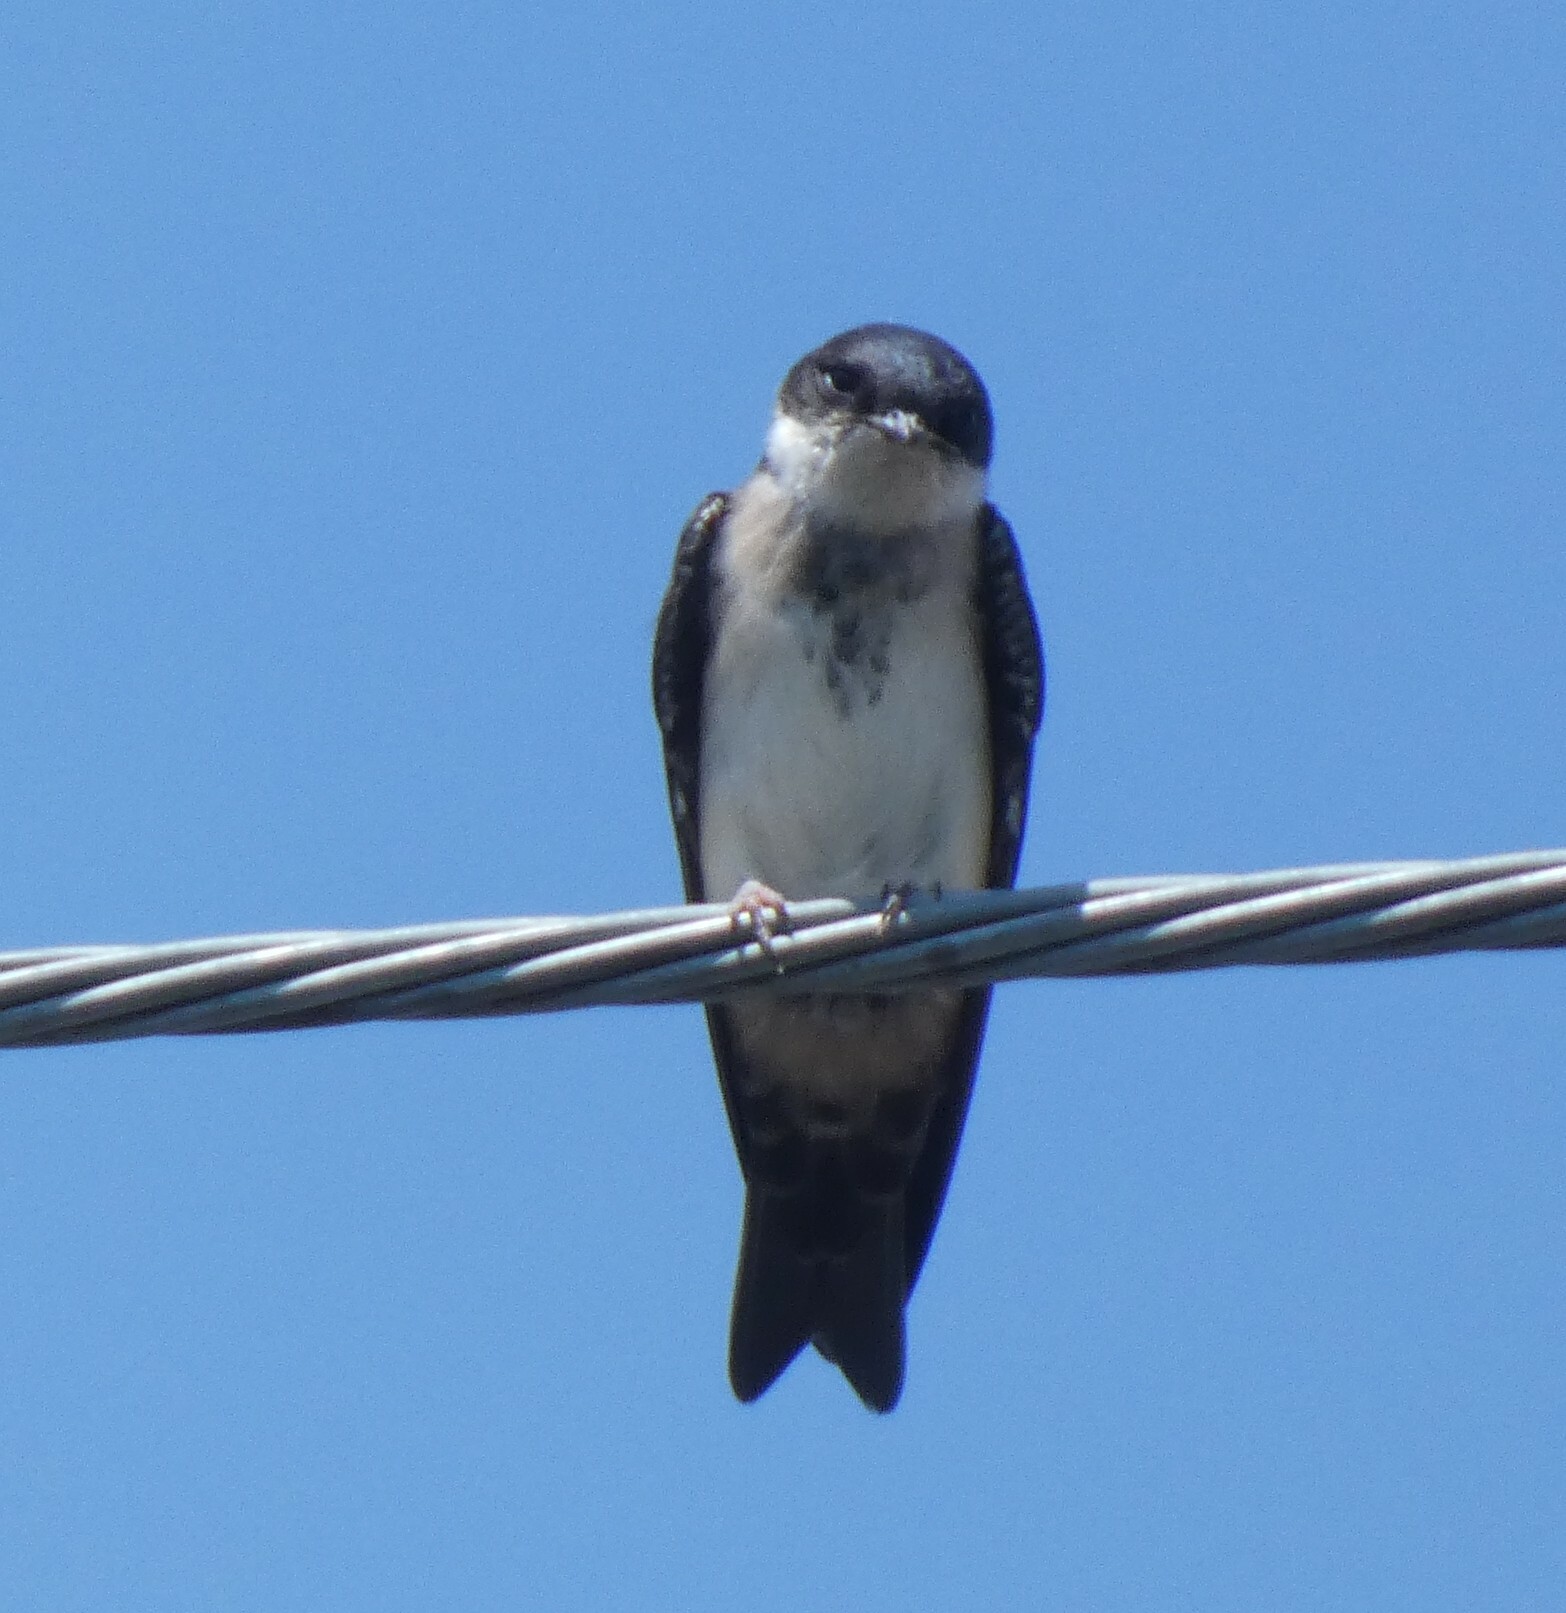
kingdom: Animalia
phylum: Chordata
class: Aves
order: Passeriformes
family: Hirundinidae
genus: Notiochelidon
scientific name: Notiochelidon cyanoleuca
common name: Blue-and-white swallow
